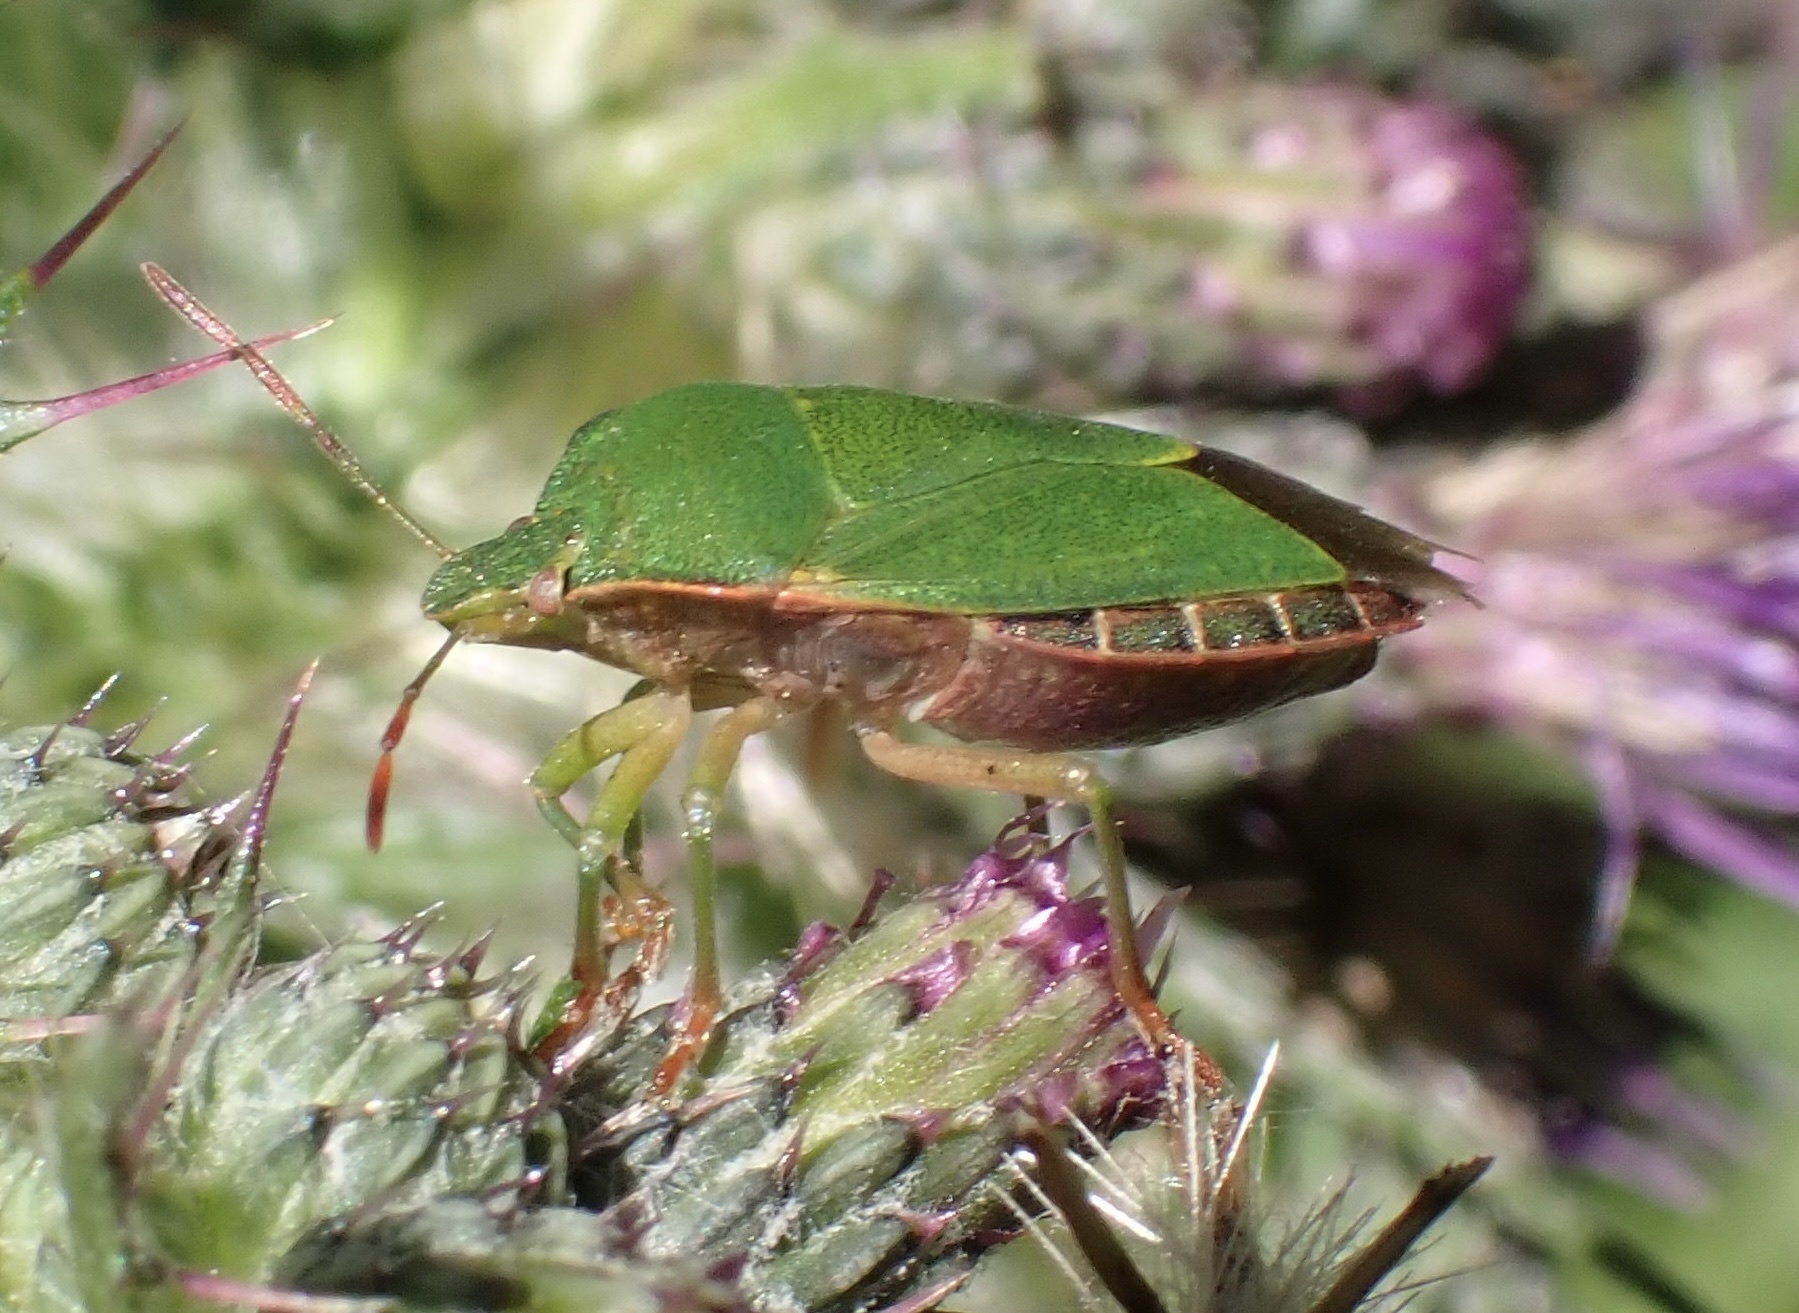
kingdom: Animalia
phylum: Arthropoda
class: Insecta
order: Hemiptera
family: Pentatomidae
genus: Palomena
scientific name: Palomena prasina
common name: Green shieldbug
